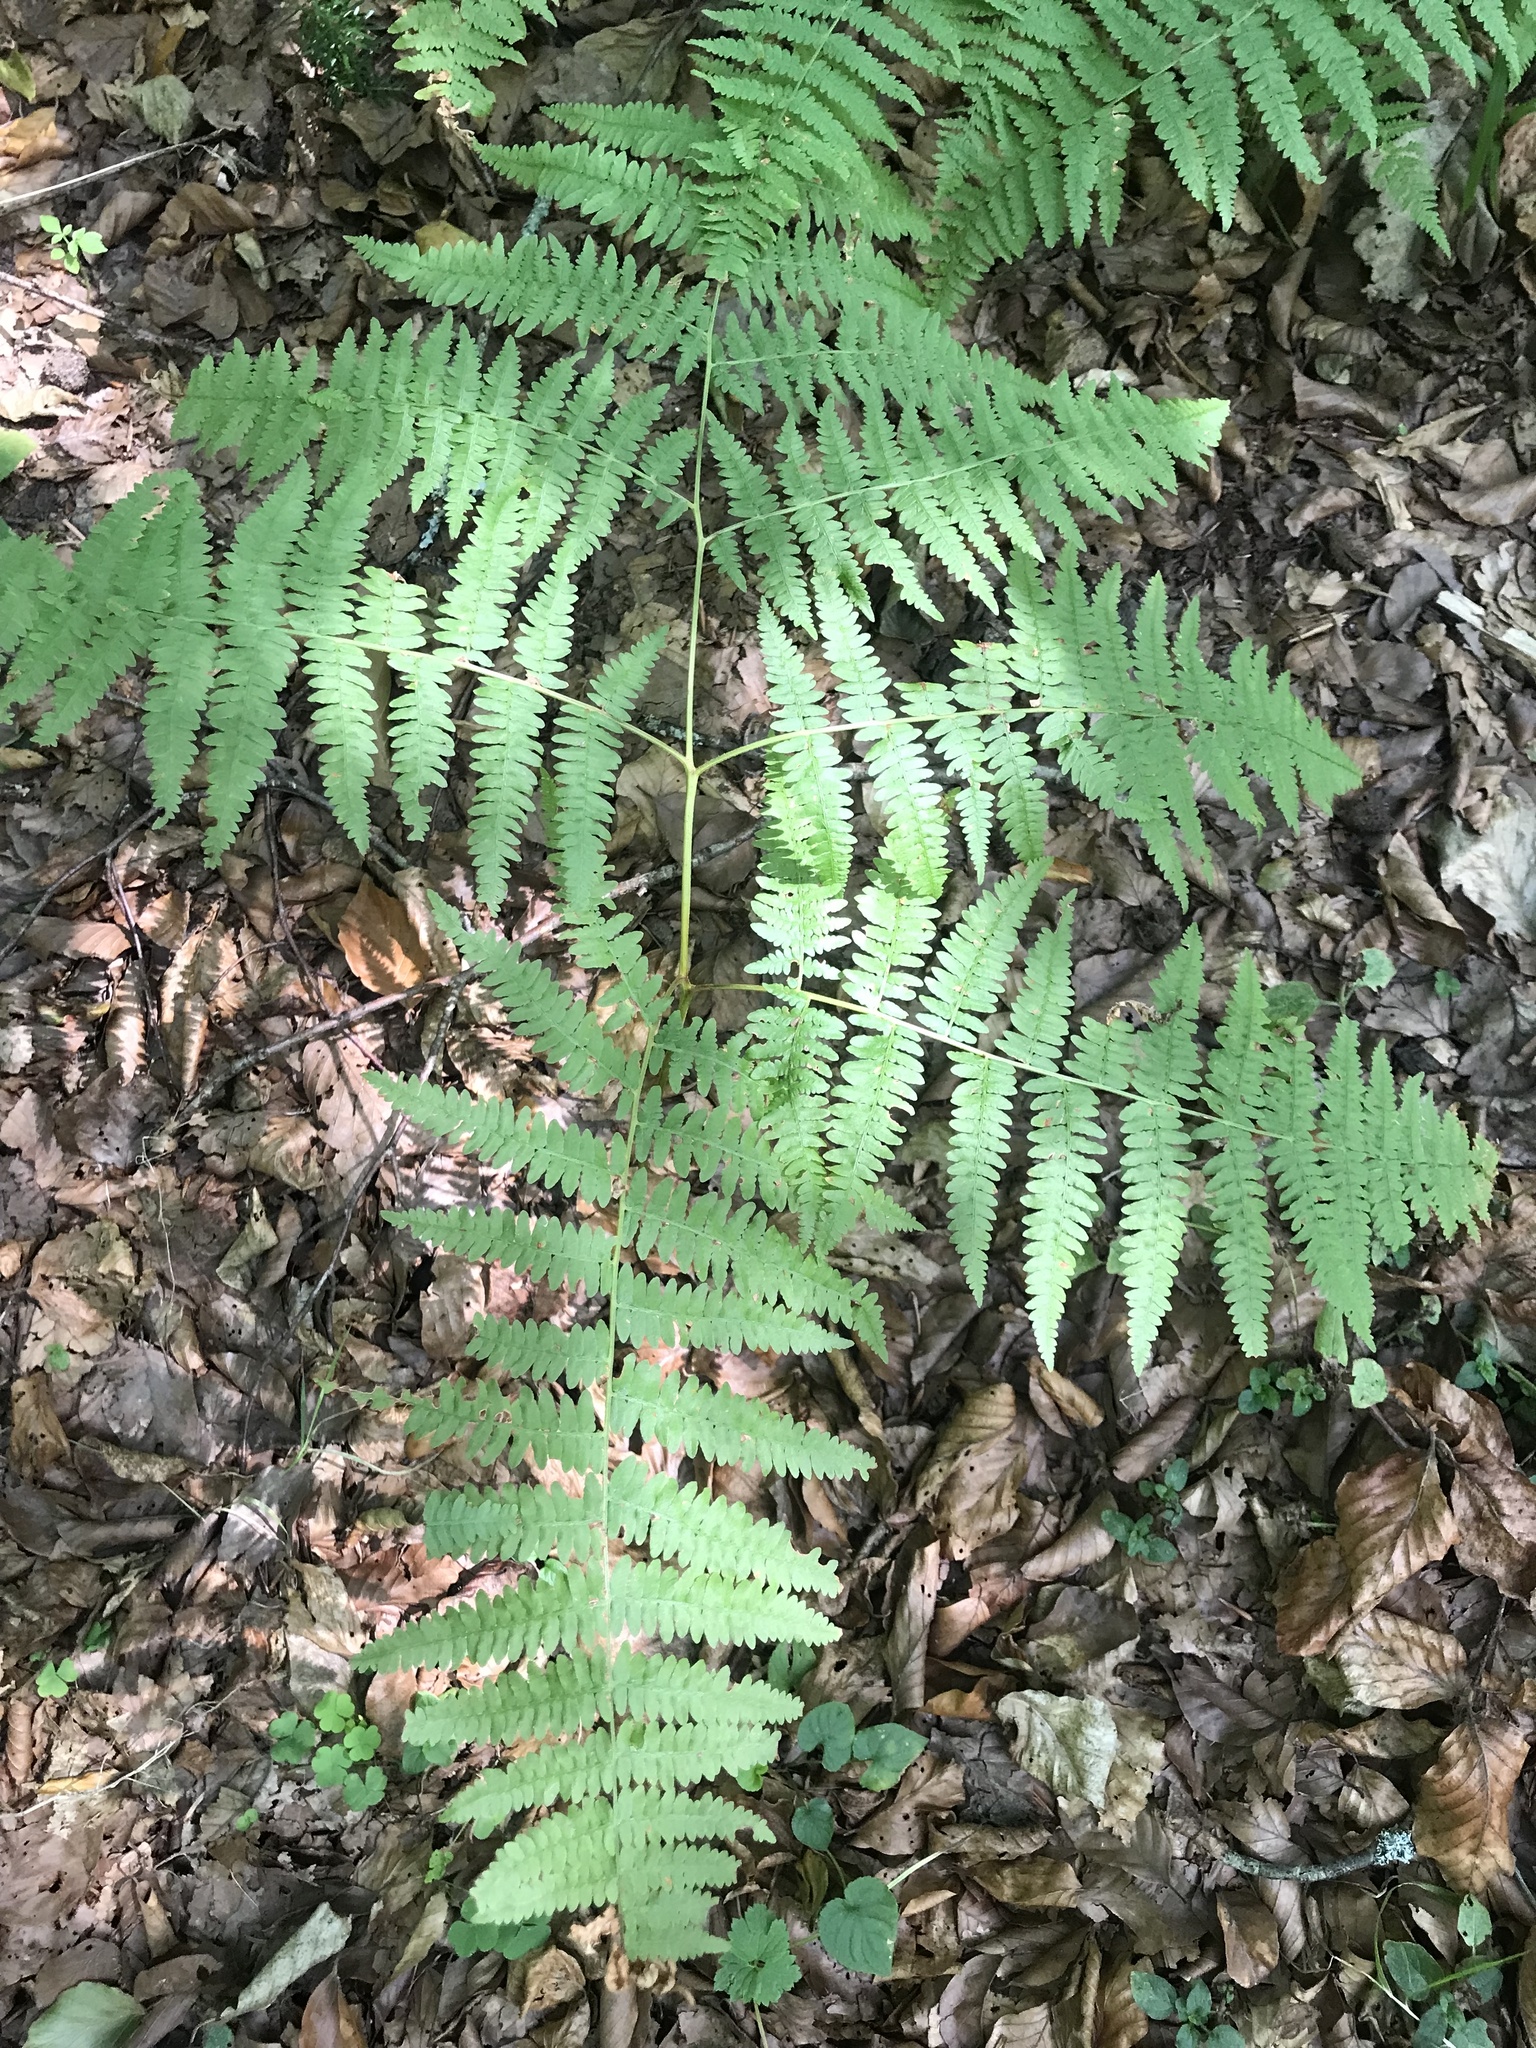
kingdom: Plantae
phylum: Tracheophyta
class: Polypodiopsida
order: Polypodiales
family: Dennstaedtiaceae
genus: Pteridium
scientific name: Pteridium aquilinum
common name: Bracken
